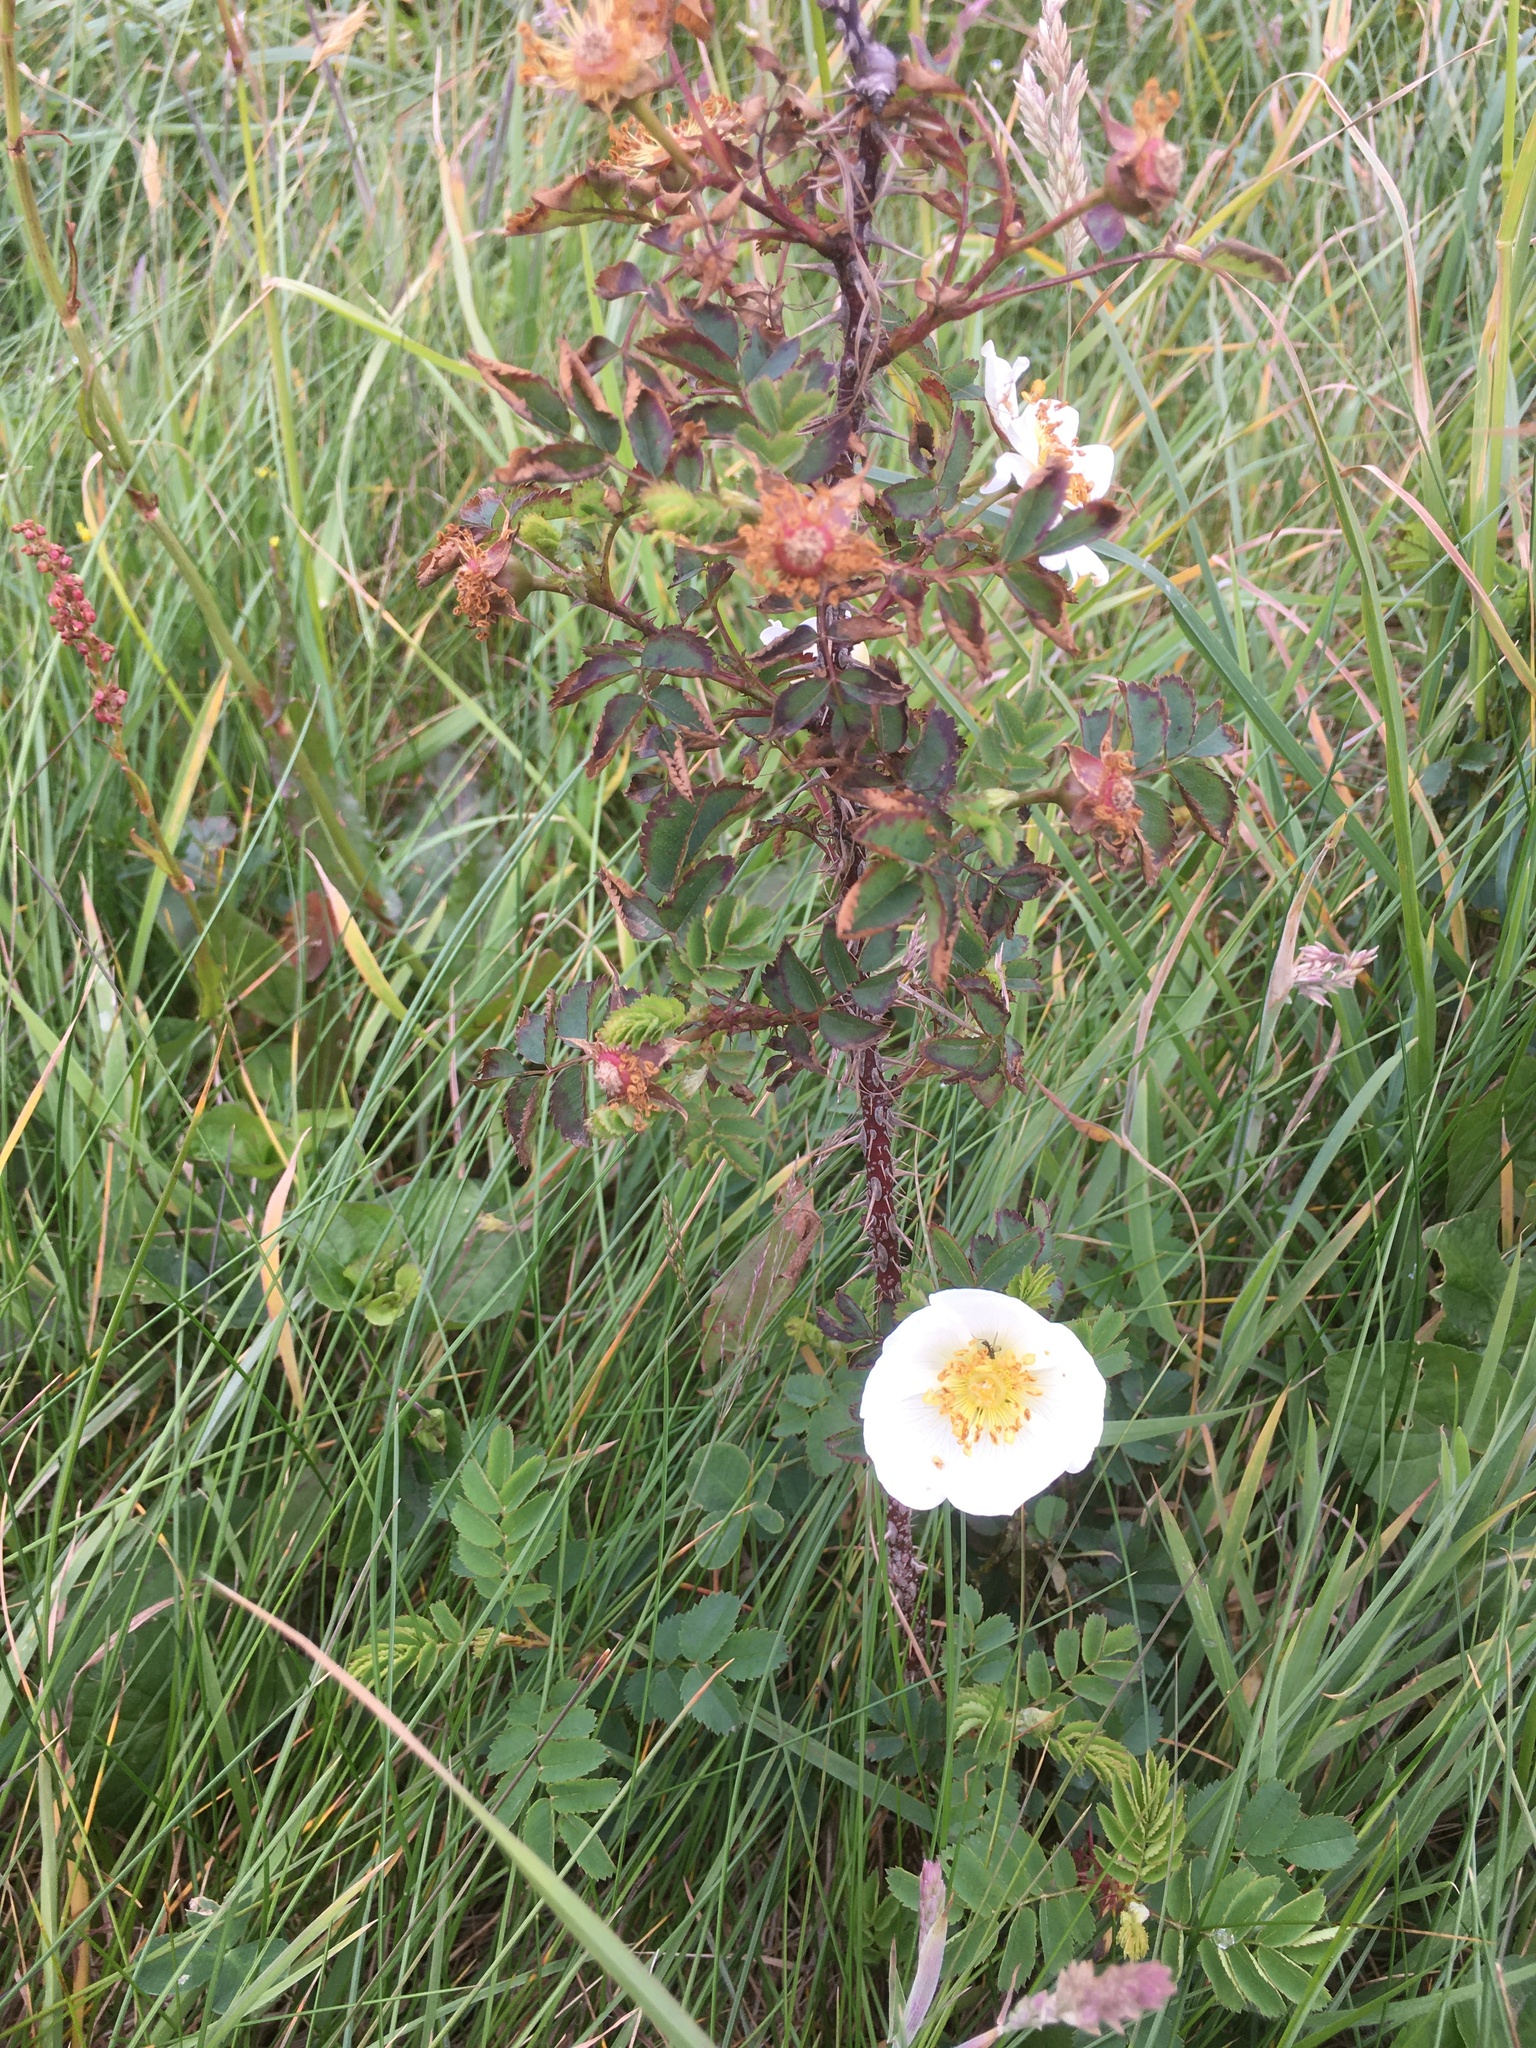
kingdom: Plantae
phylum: Tracheophyta
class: Magnoliopsida
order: Rosales
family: Rosaceae
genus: Rosa
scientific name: Rosa spinosissima
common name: Burnet rose
